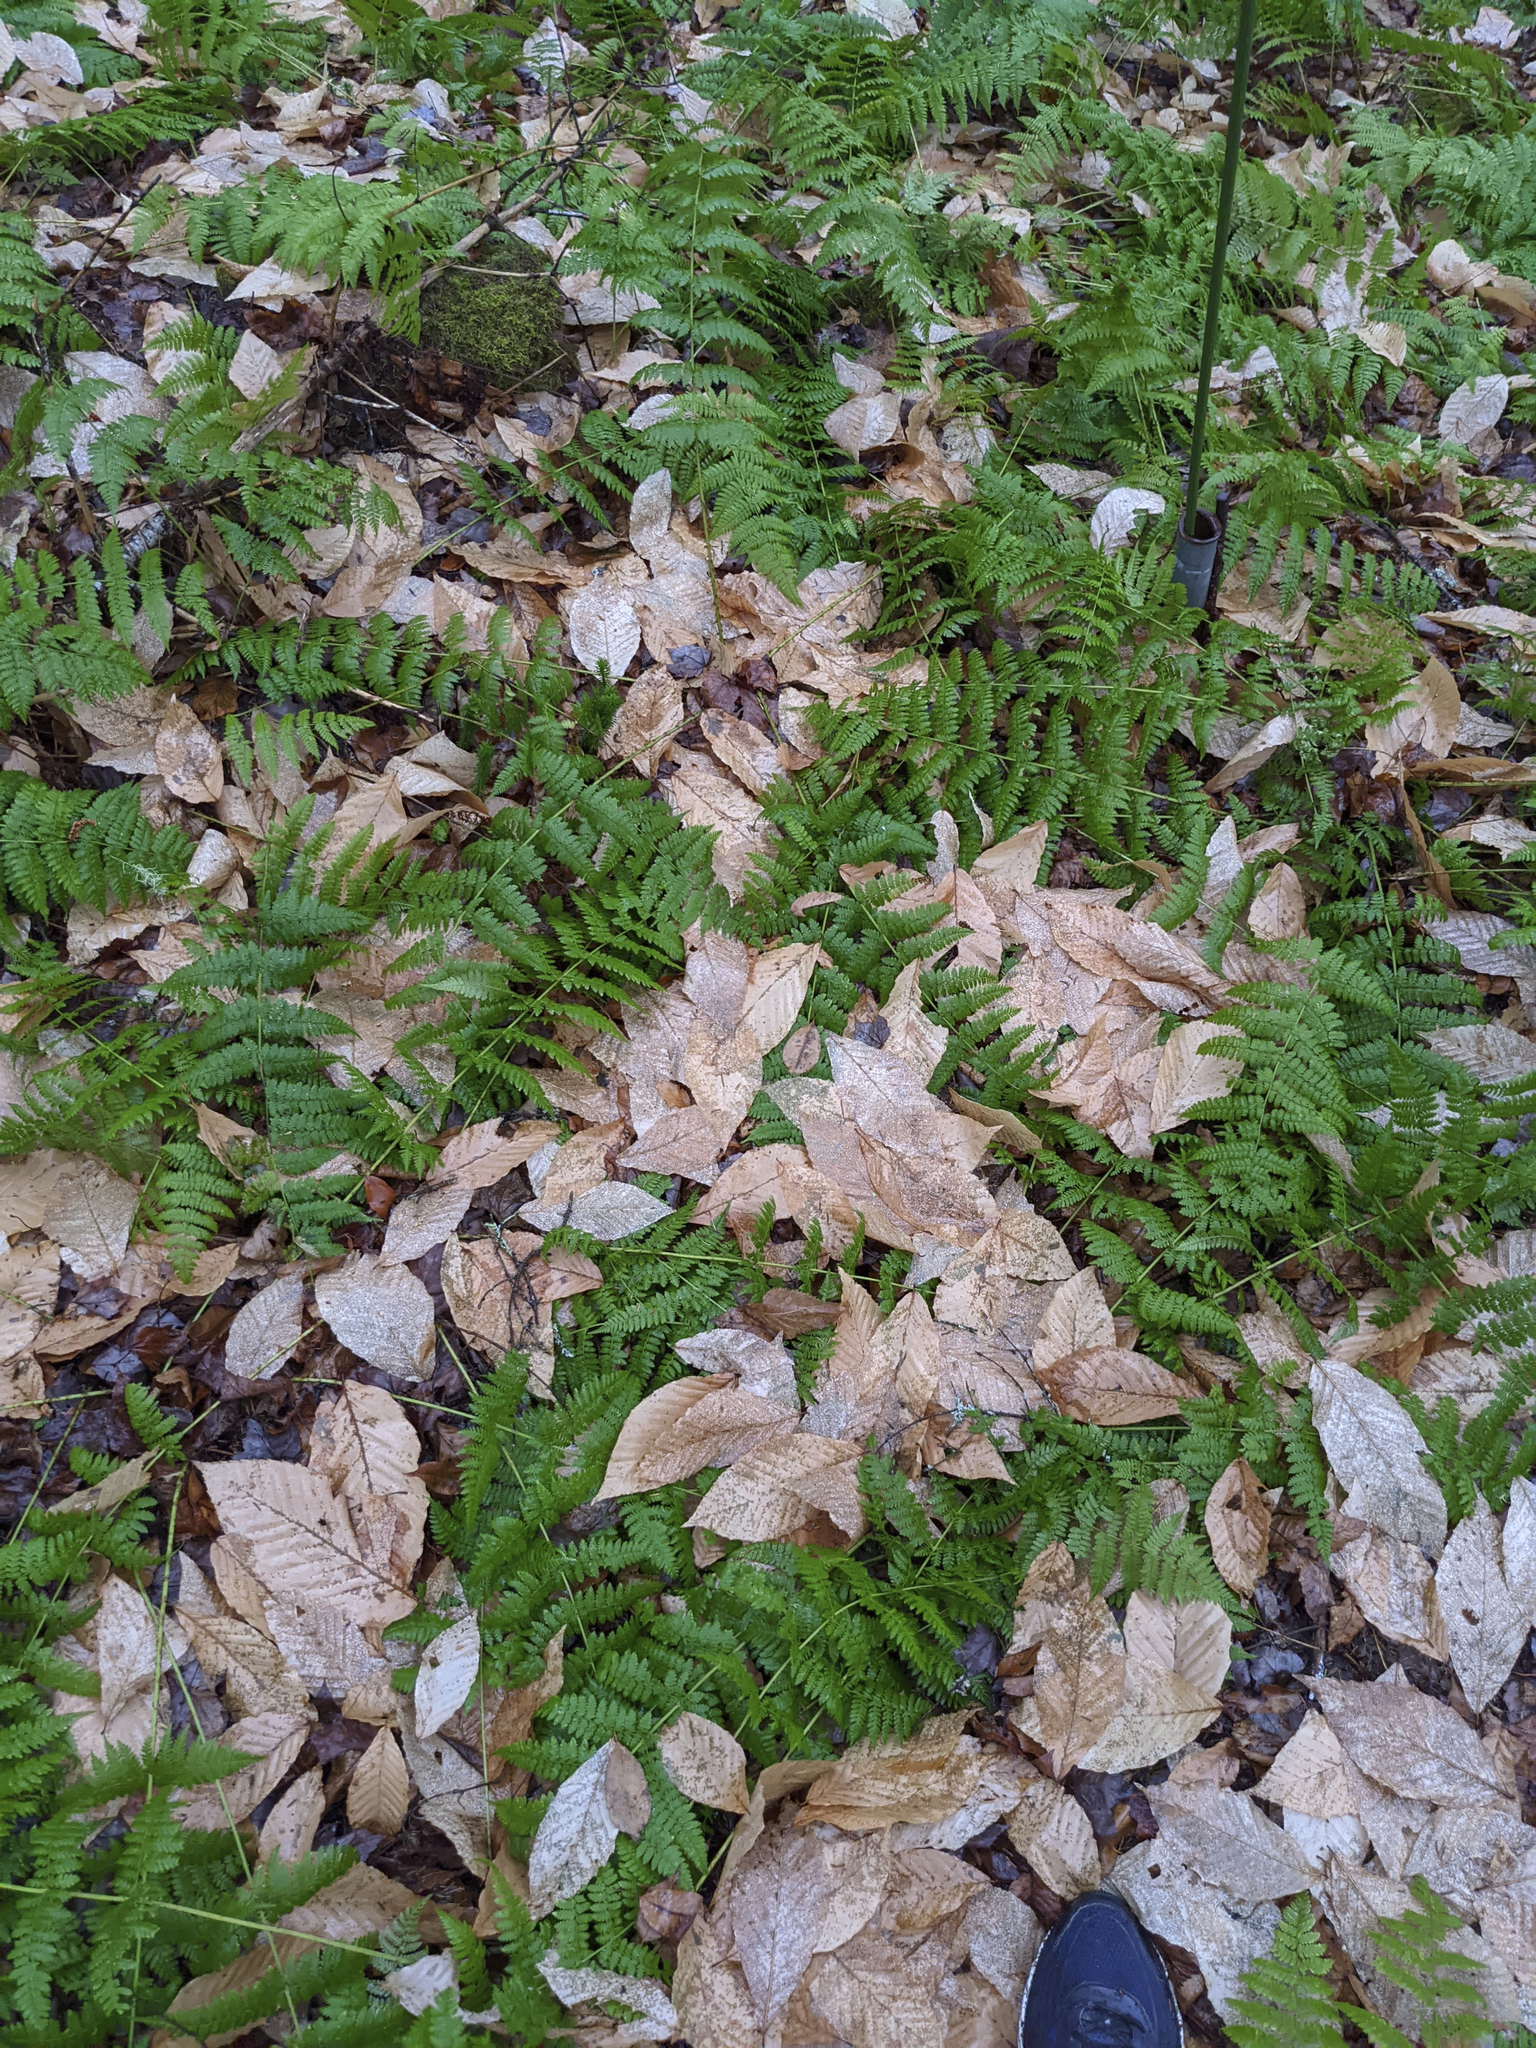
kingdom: Plantae
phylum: Tracheophyta
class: Magnoliopsida
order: Fagales
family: Fagaceae
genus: Fagus
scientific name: Fagus grandifolia
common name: American beech
